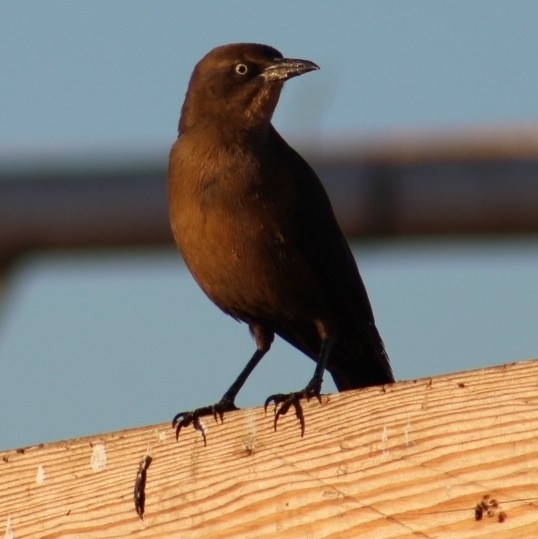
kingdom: Animalia
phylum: Chordata
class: Aves
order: Passeriformes
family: Icteridae
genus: Quiscalus
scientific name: Quiscalus mexicanus
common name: Great-tailed grackle
